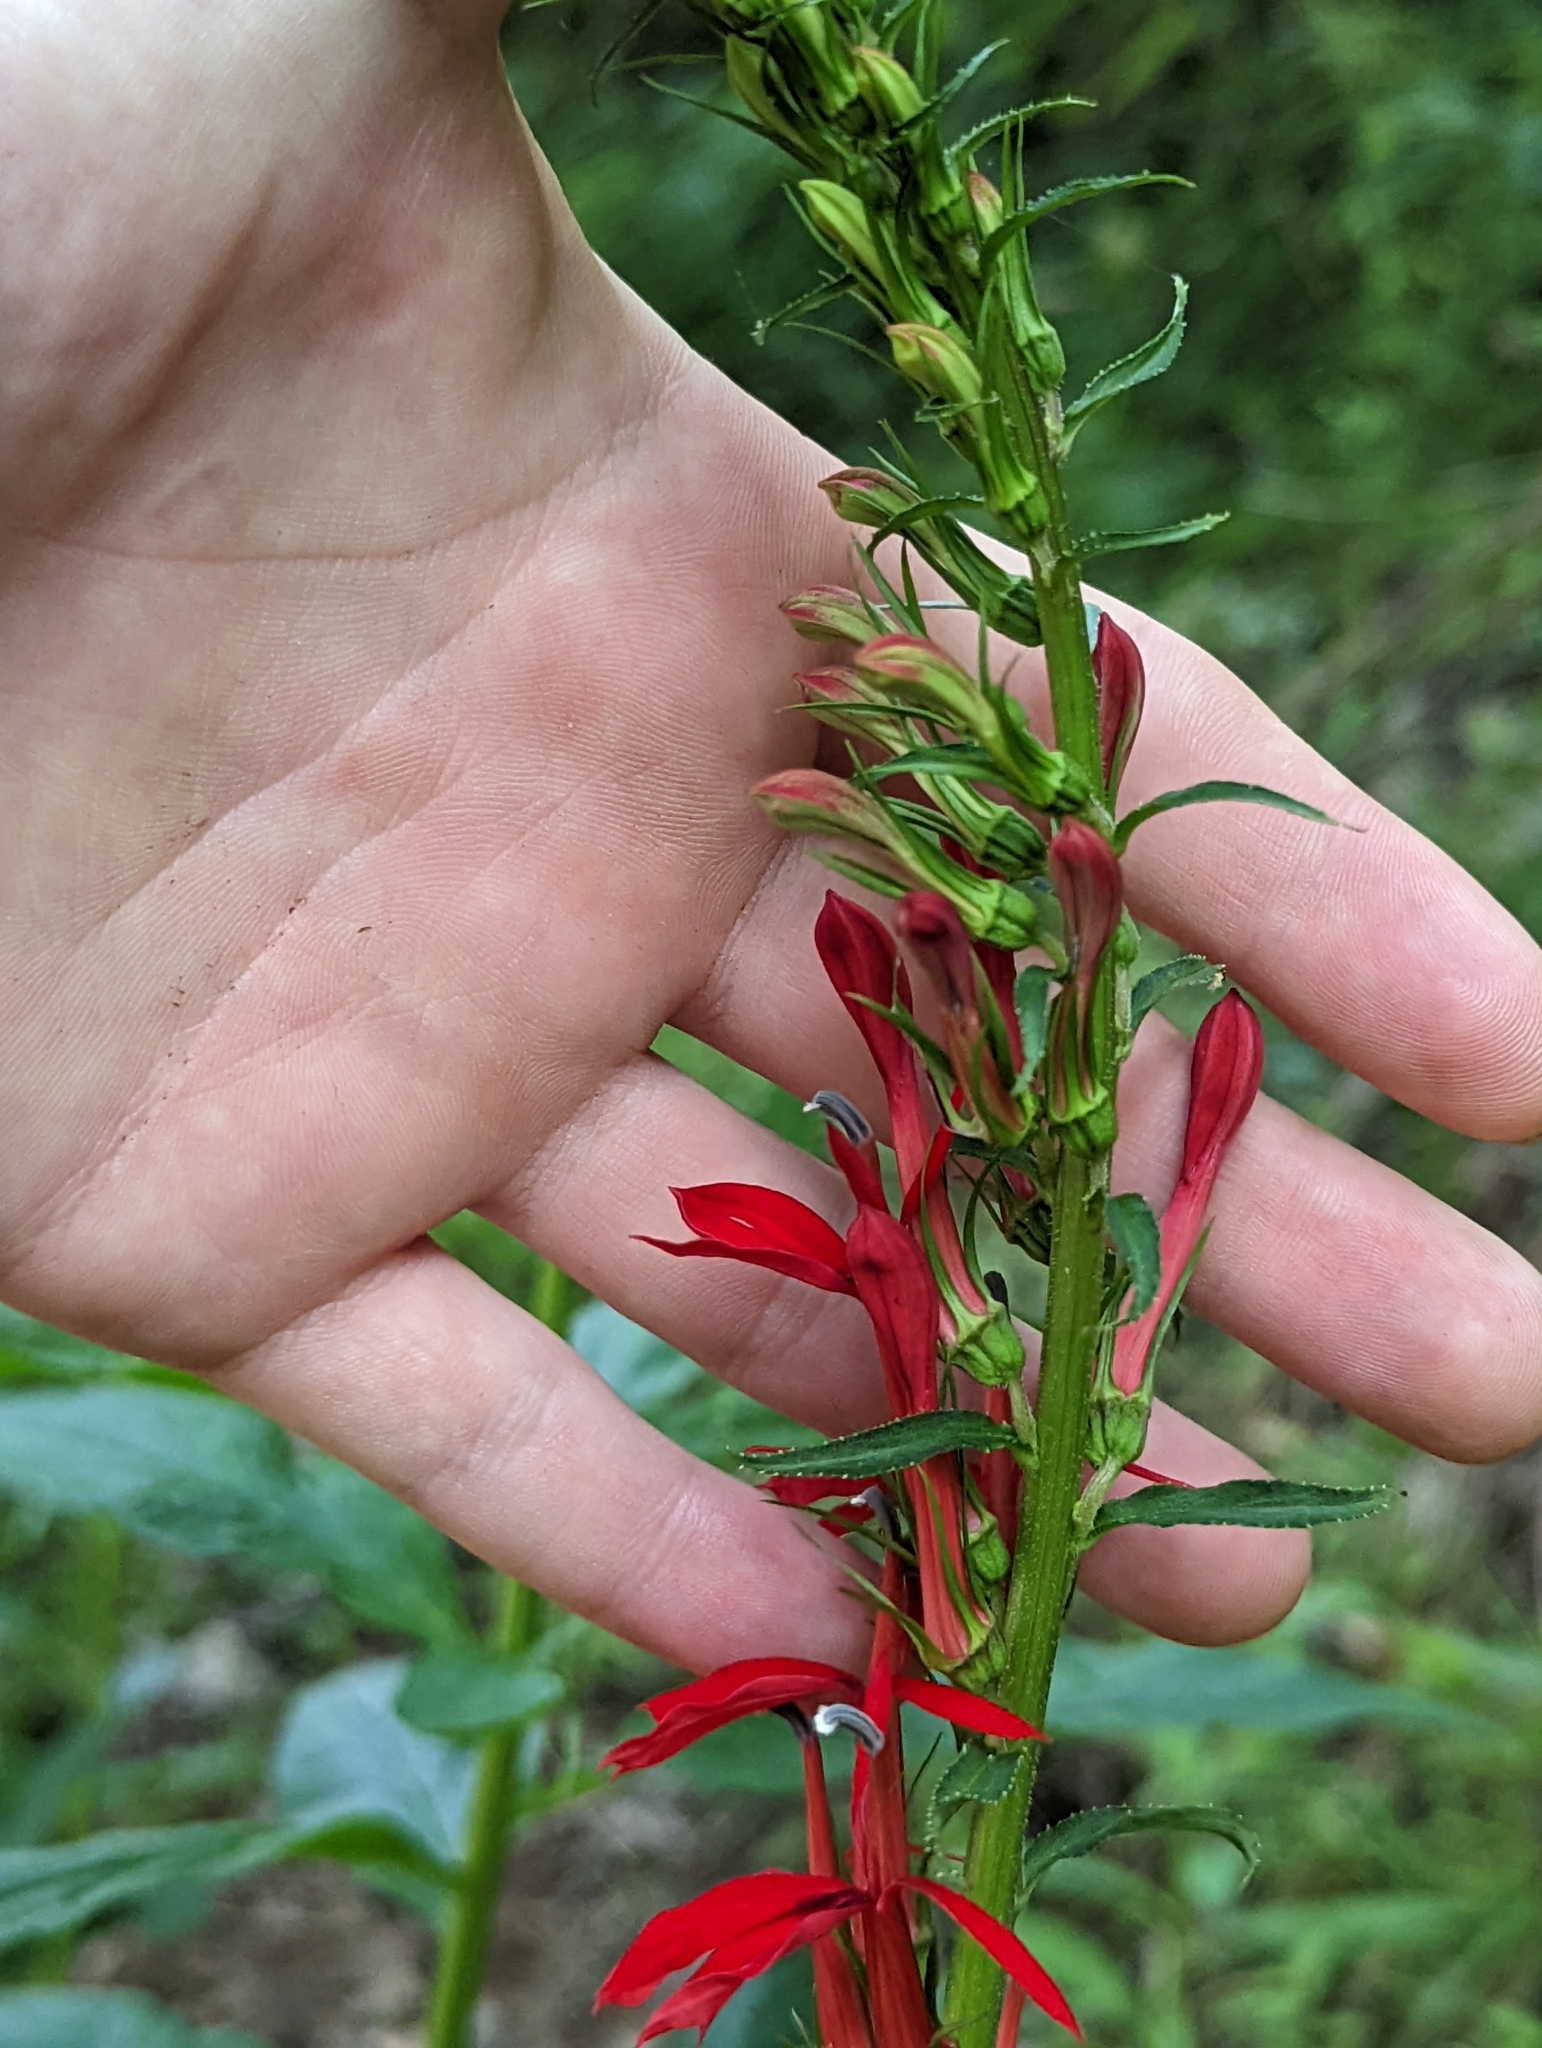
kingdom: Plantae
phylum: Tracheophyta
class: Magnoliopsida
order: Asterales
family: Campanulaceae
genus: Lobelia
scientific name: Lobelia cardinalis
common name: Cardinal flower
